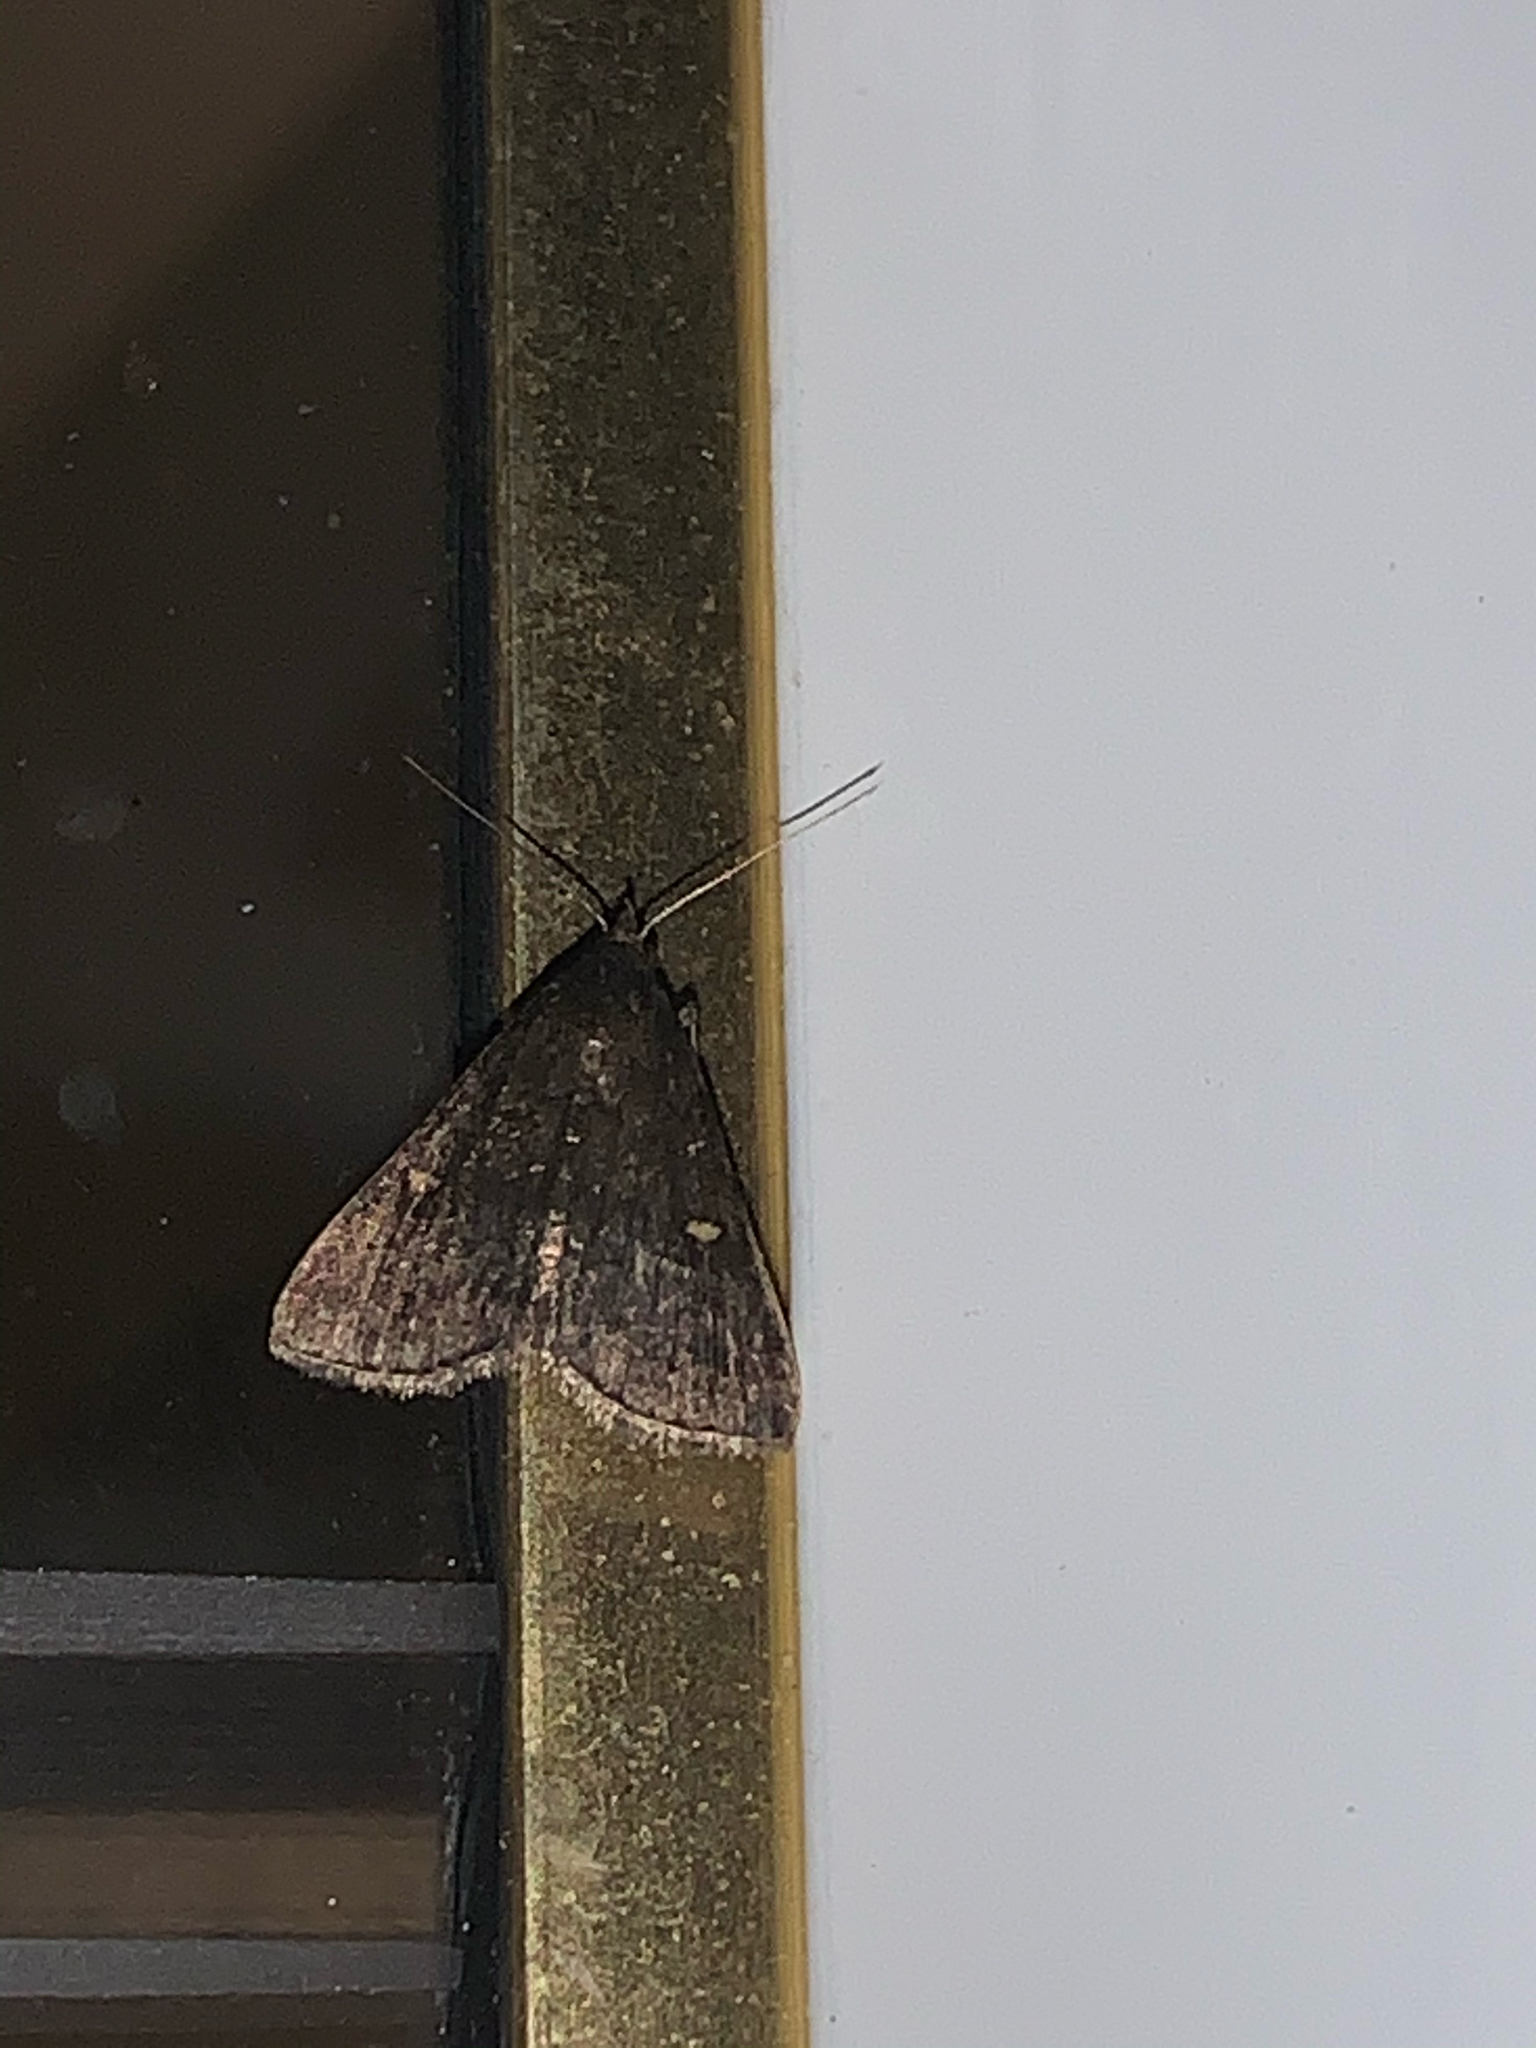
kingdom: Animalia
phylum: Arthropoda
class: Insecta
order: Lepidoptera
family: Erebidae
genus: Tetanolita
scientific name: Tetanolita mynesalis
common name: Smoky tetanolita moth
